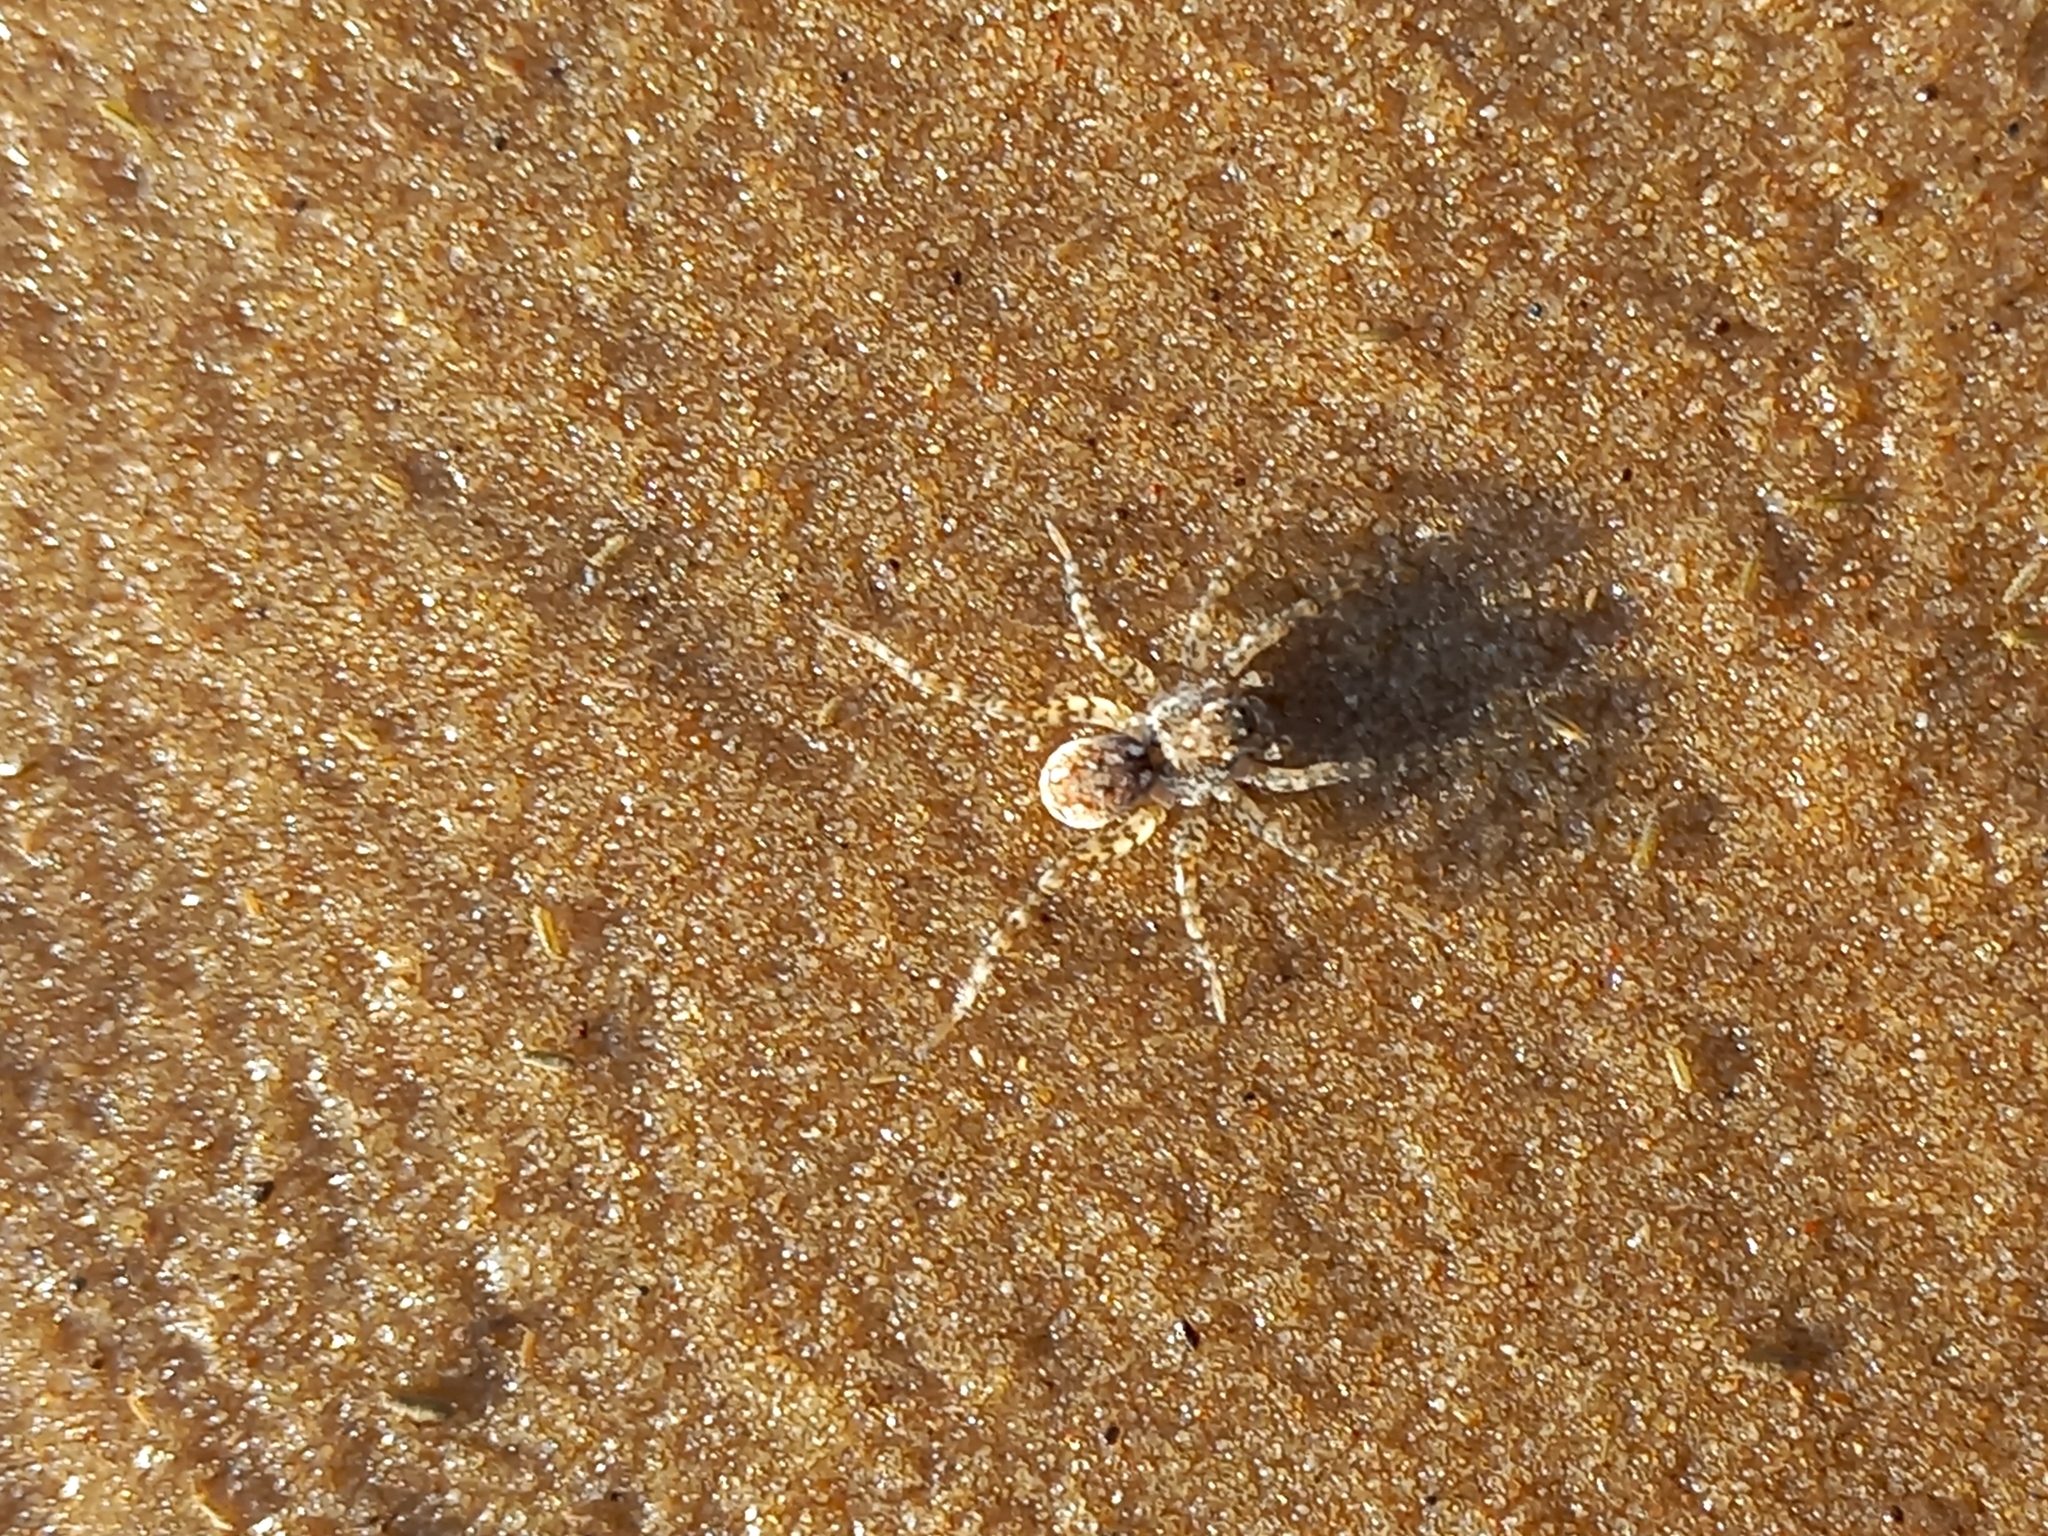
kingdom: Animalia
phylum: Arthropoda
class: Arachnida
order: Araneae
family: Lycosidae
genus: Paratrochosina
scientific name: Paratrochosina amica
